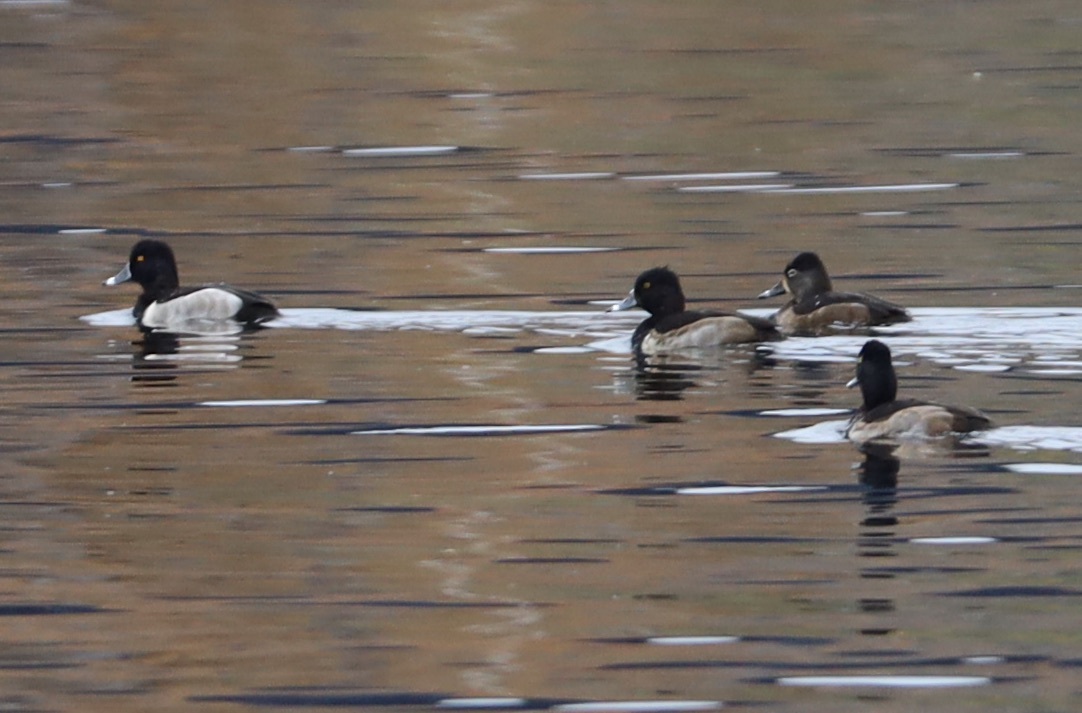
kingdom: Animalia
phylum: Chordata
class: Aves
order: Anseriformes
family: Anatidae
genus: Aythya
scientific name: Aythya collaris
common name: Ring-necked duck
